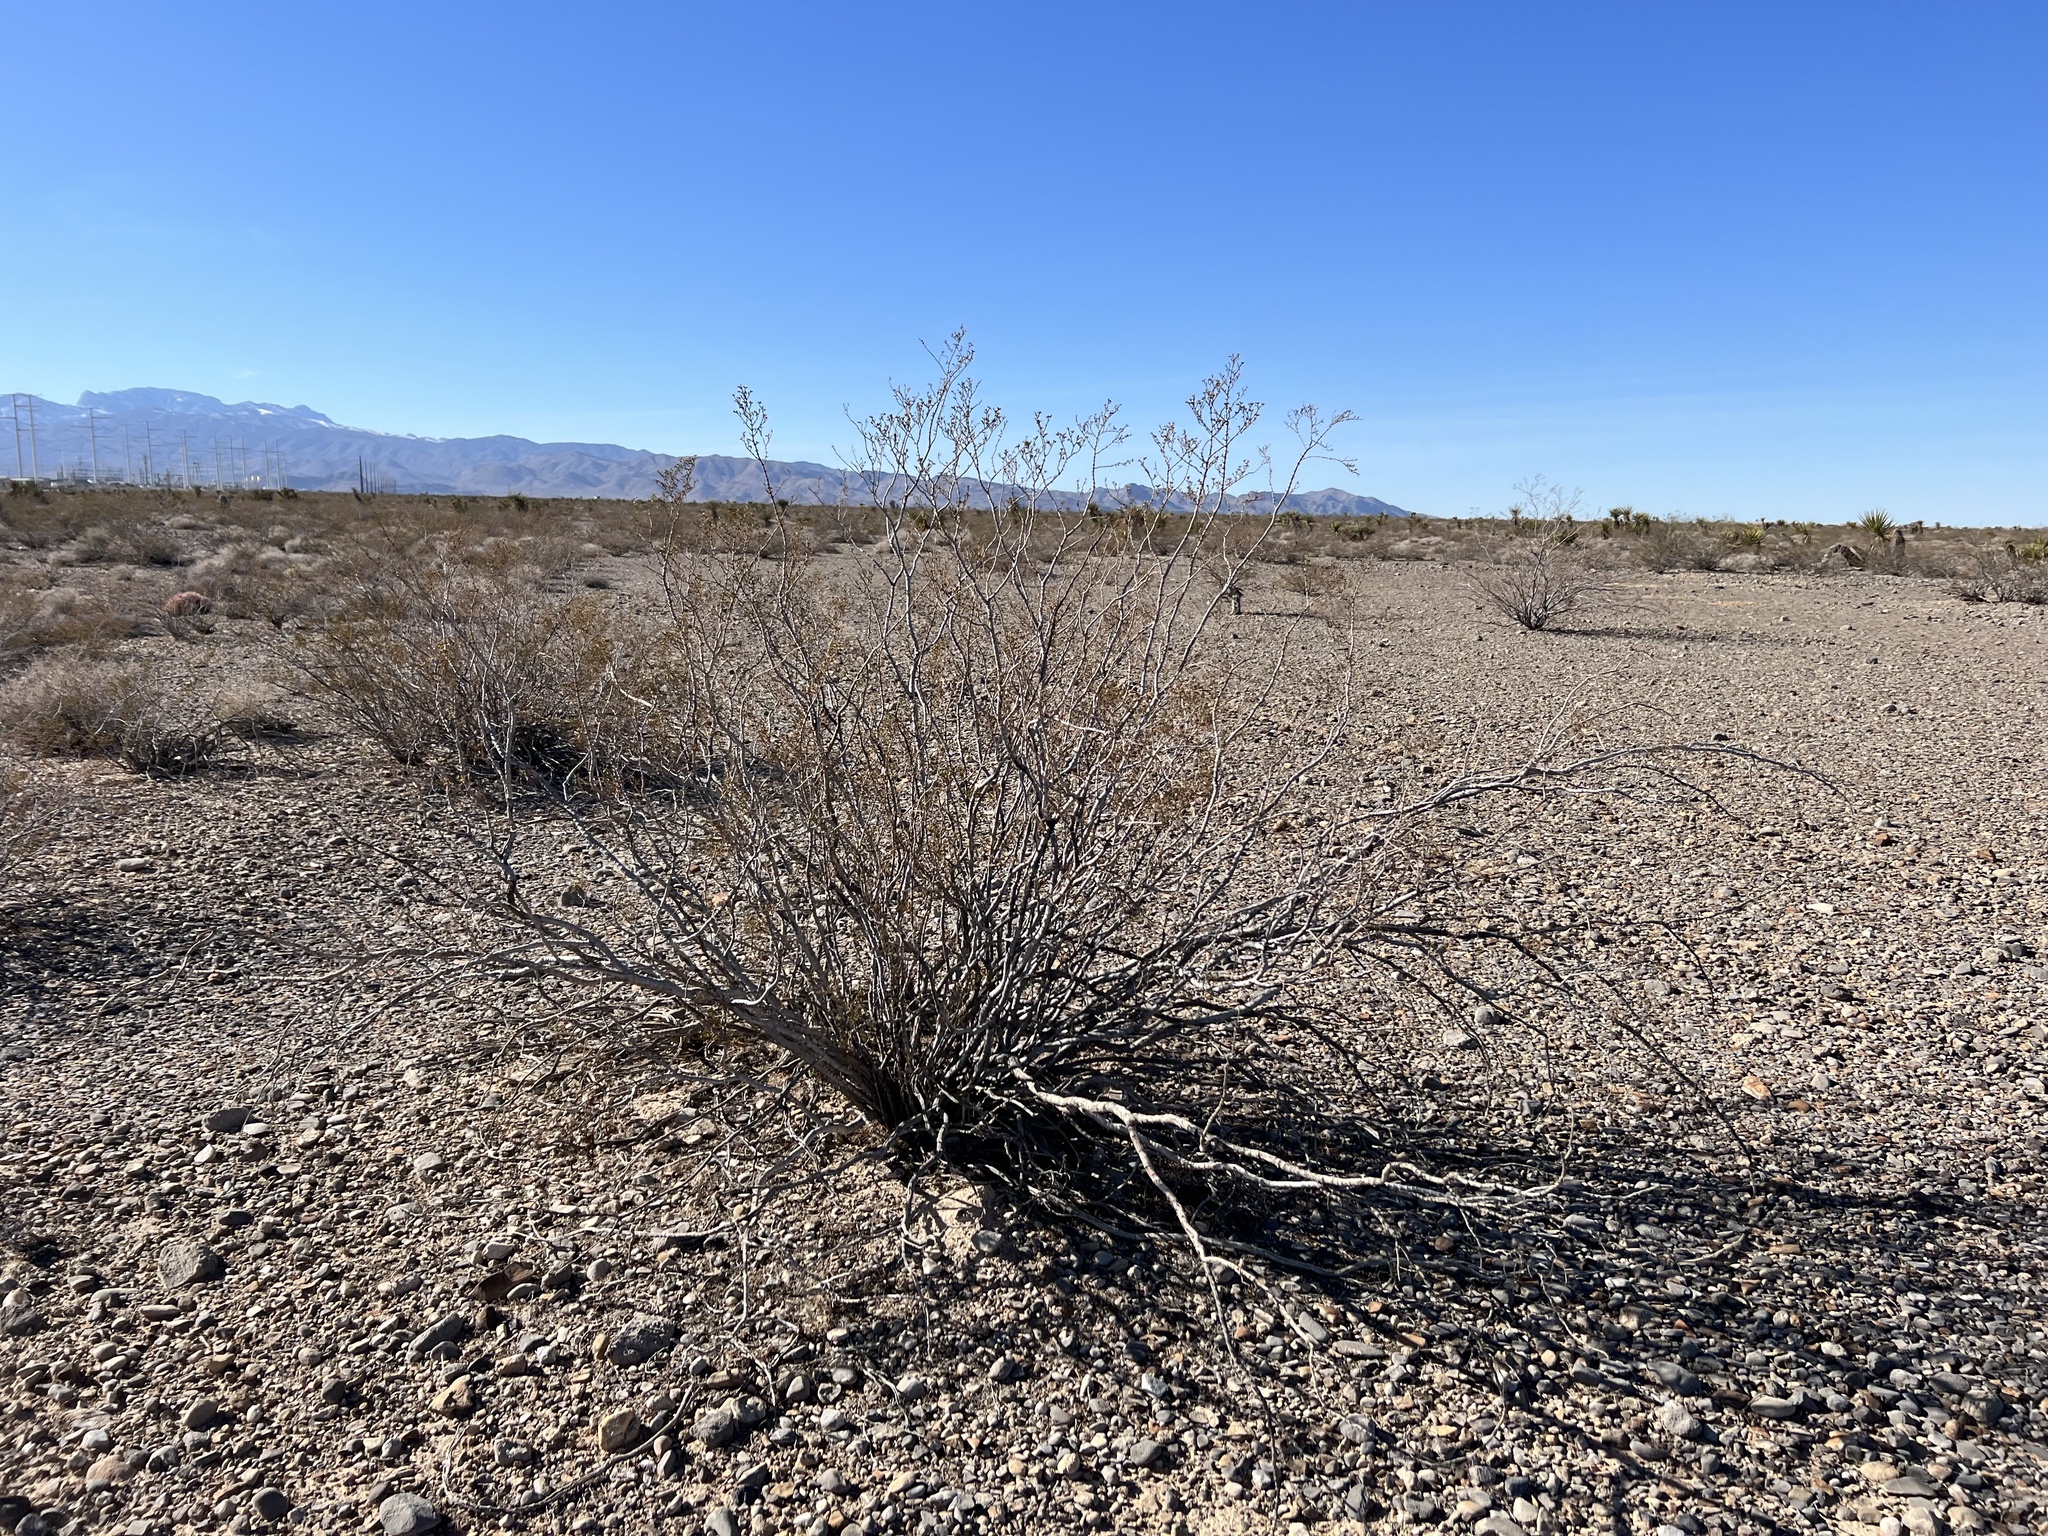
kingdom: Plantae
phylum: Tracheophyta
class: Magnoliopsida
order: Zygophyllales
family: Zygophyllaceae
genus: Larrea
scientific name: Larrea tridentata
